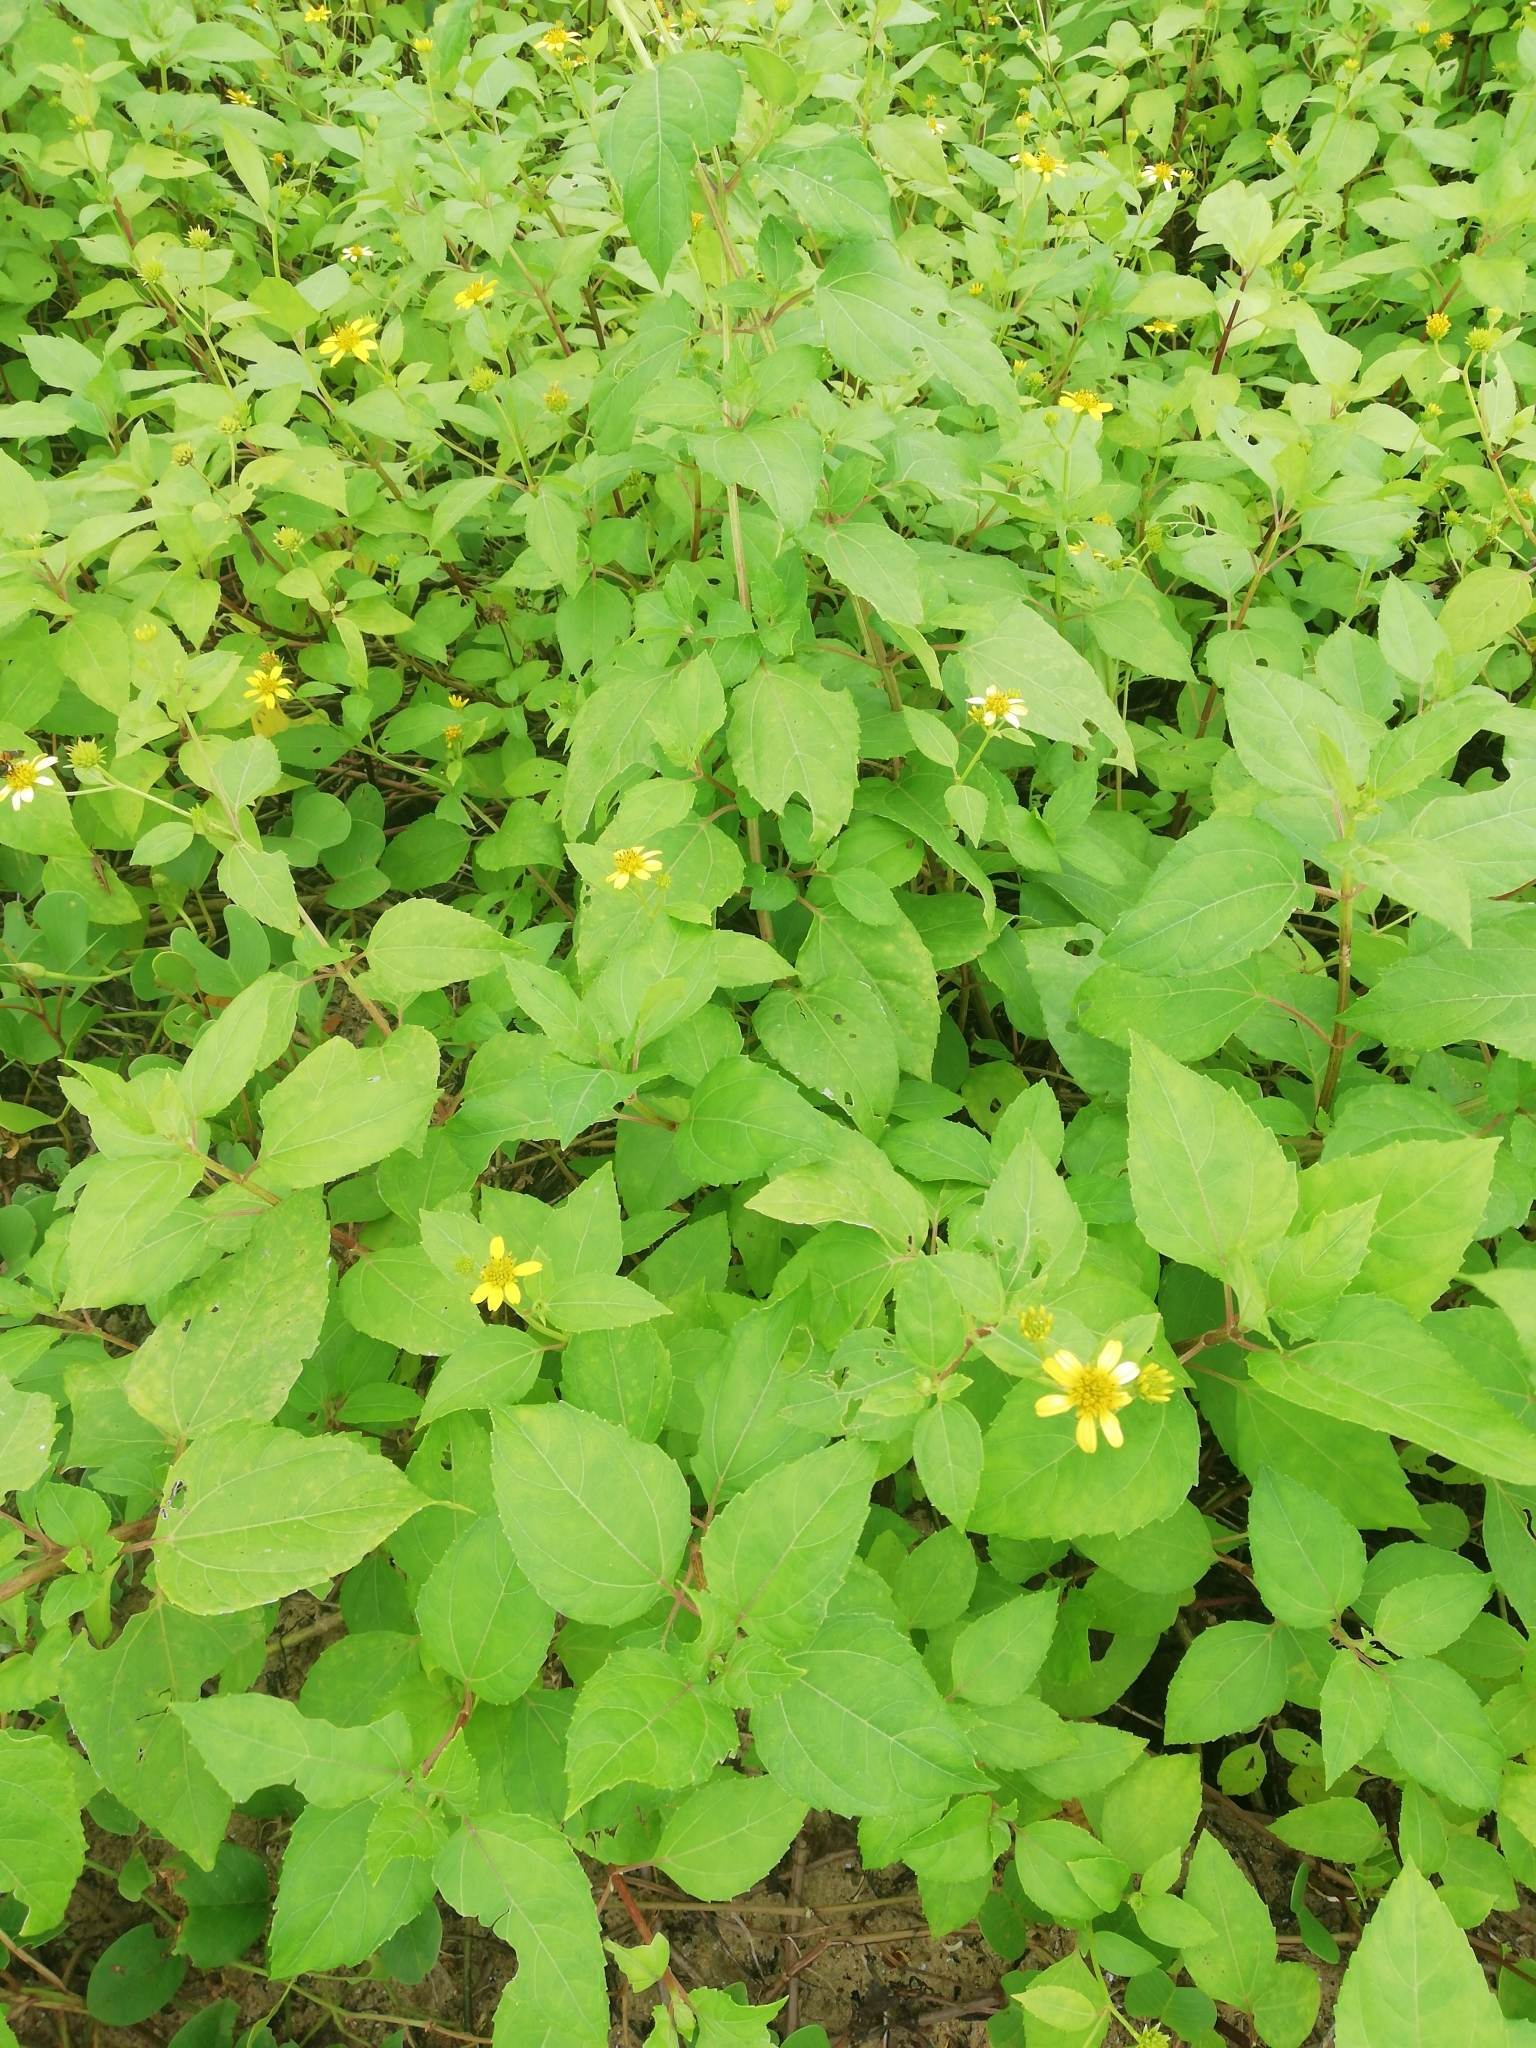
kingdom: Plantae
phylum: Tracheophyta
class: Magnoliopsida
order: Asterales
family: Asteraceae
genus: Melampodium
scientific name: Melampodium divaricatum
